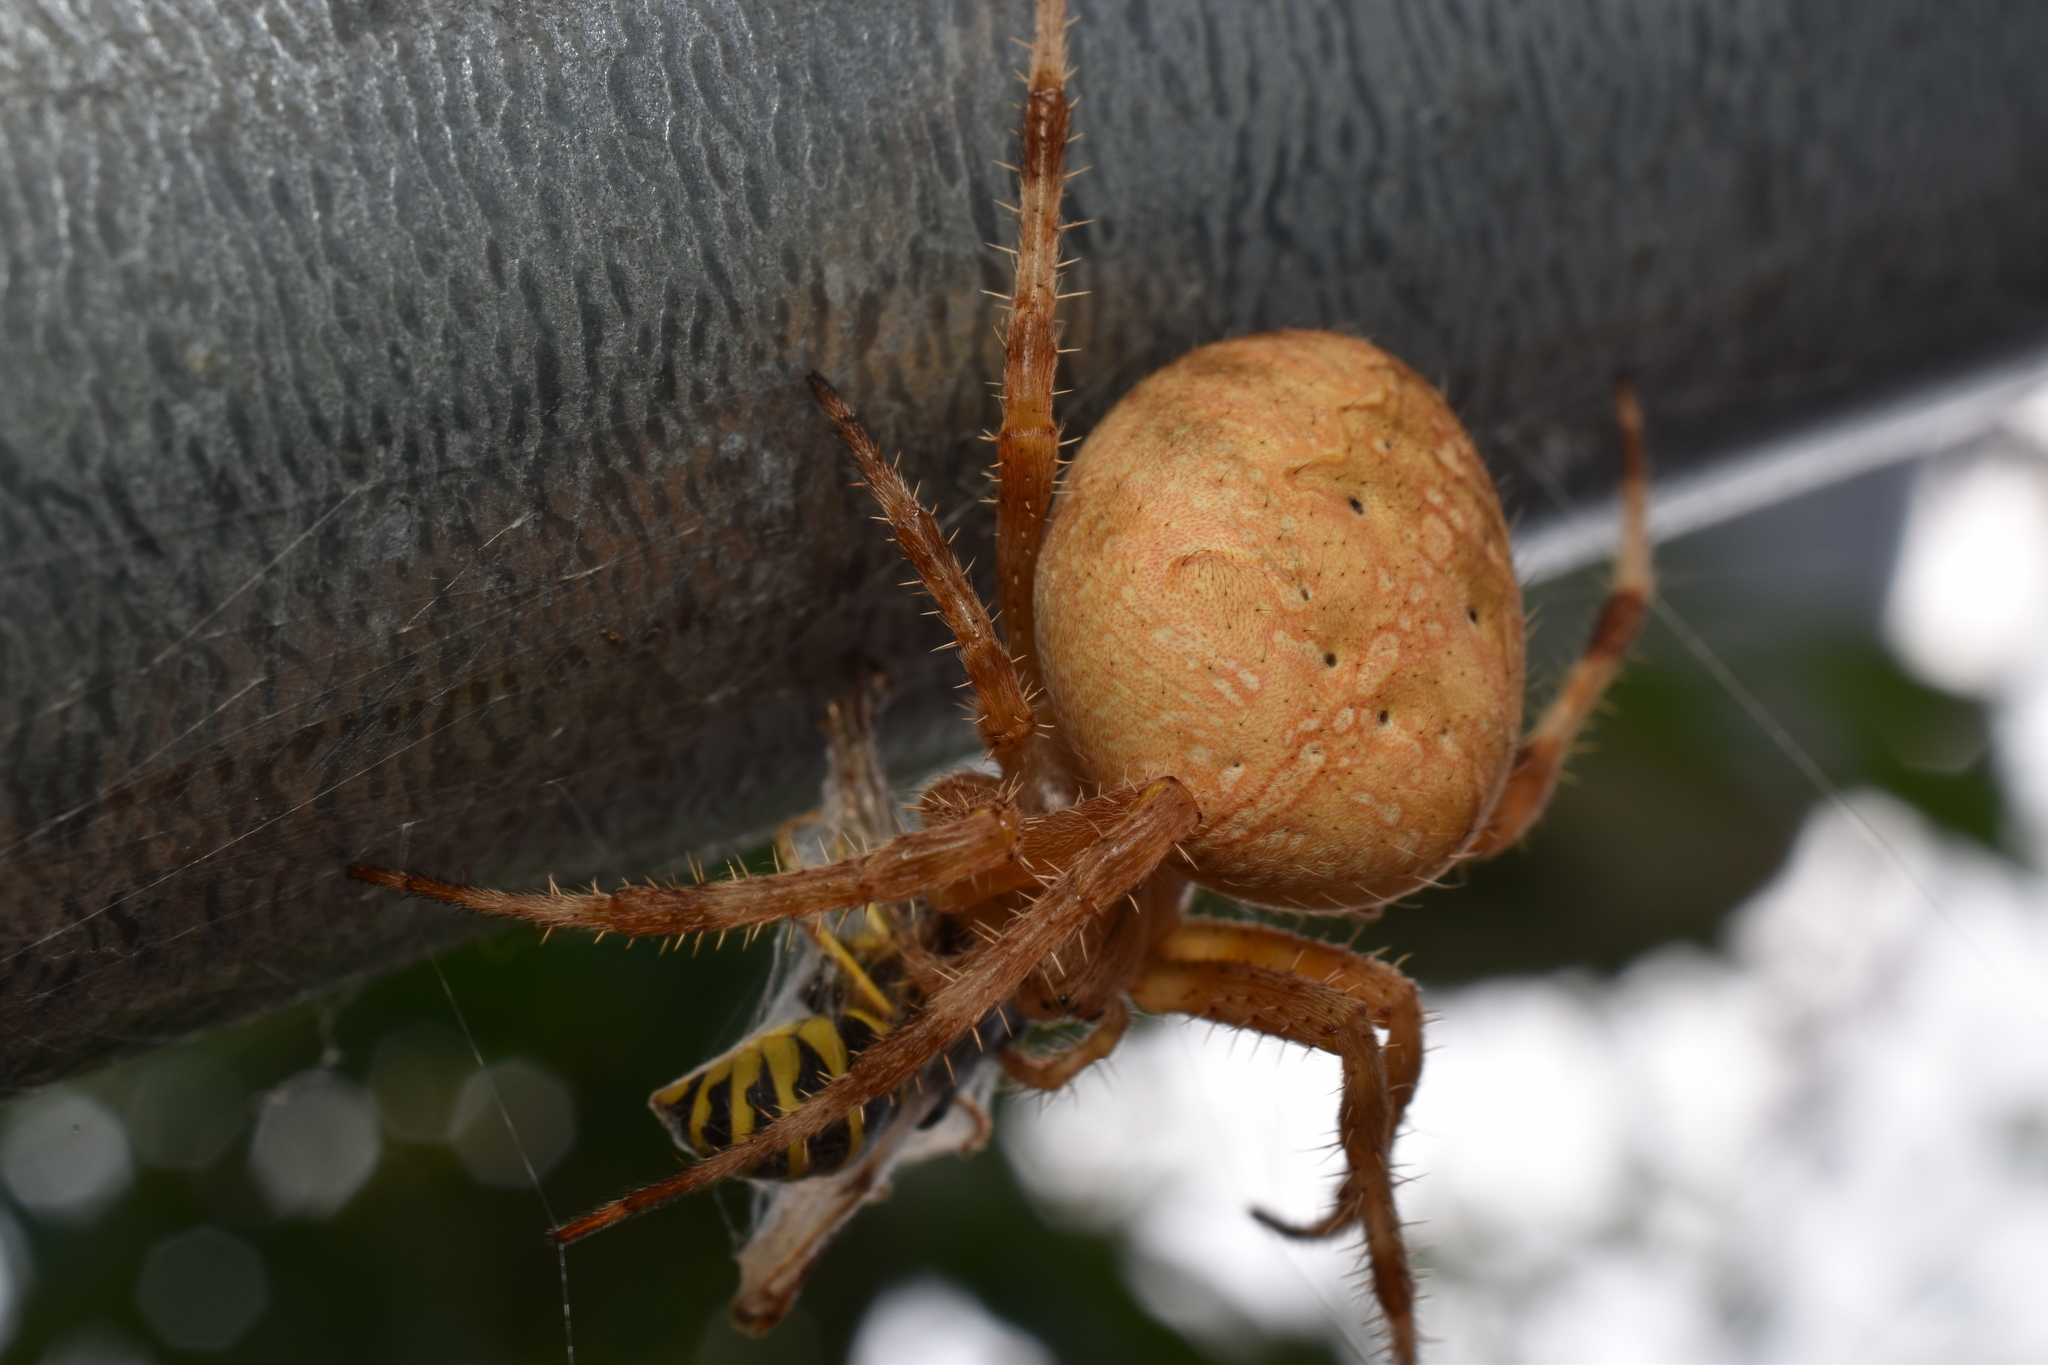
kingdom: Animalia
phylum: Arthropoda
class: Arachnida
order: Araneae
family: Araneidae
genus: Araneus
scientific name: Araneus diadematus
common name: Cross orbweaver
